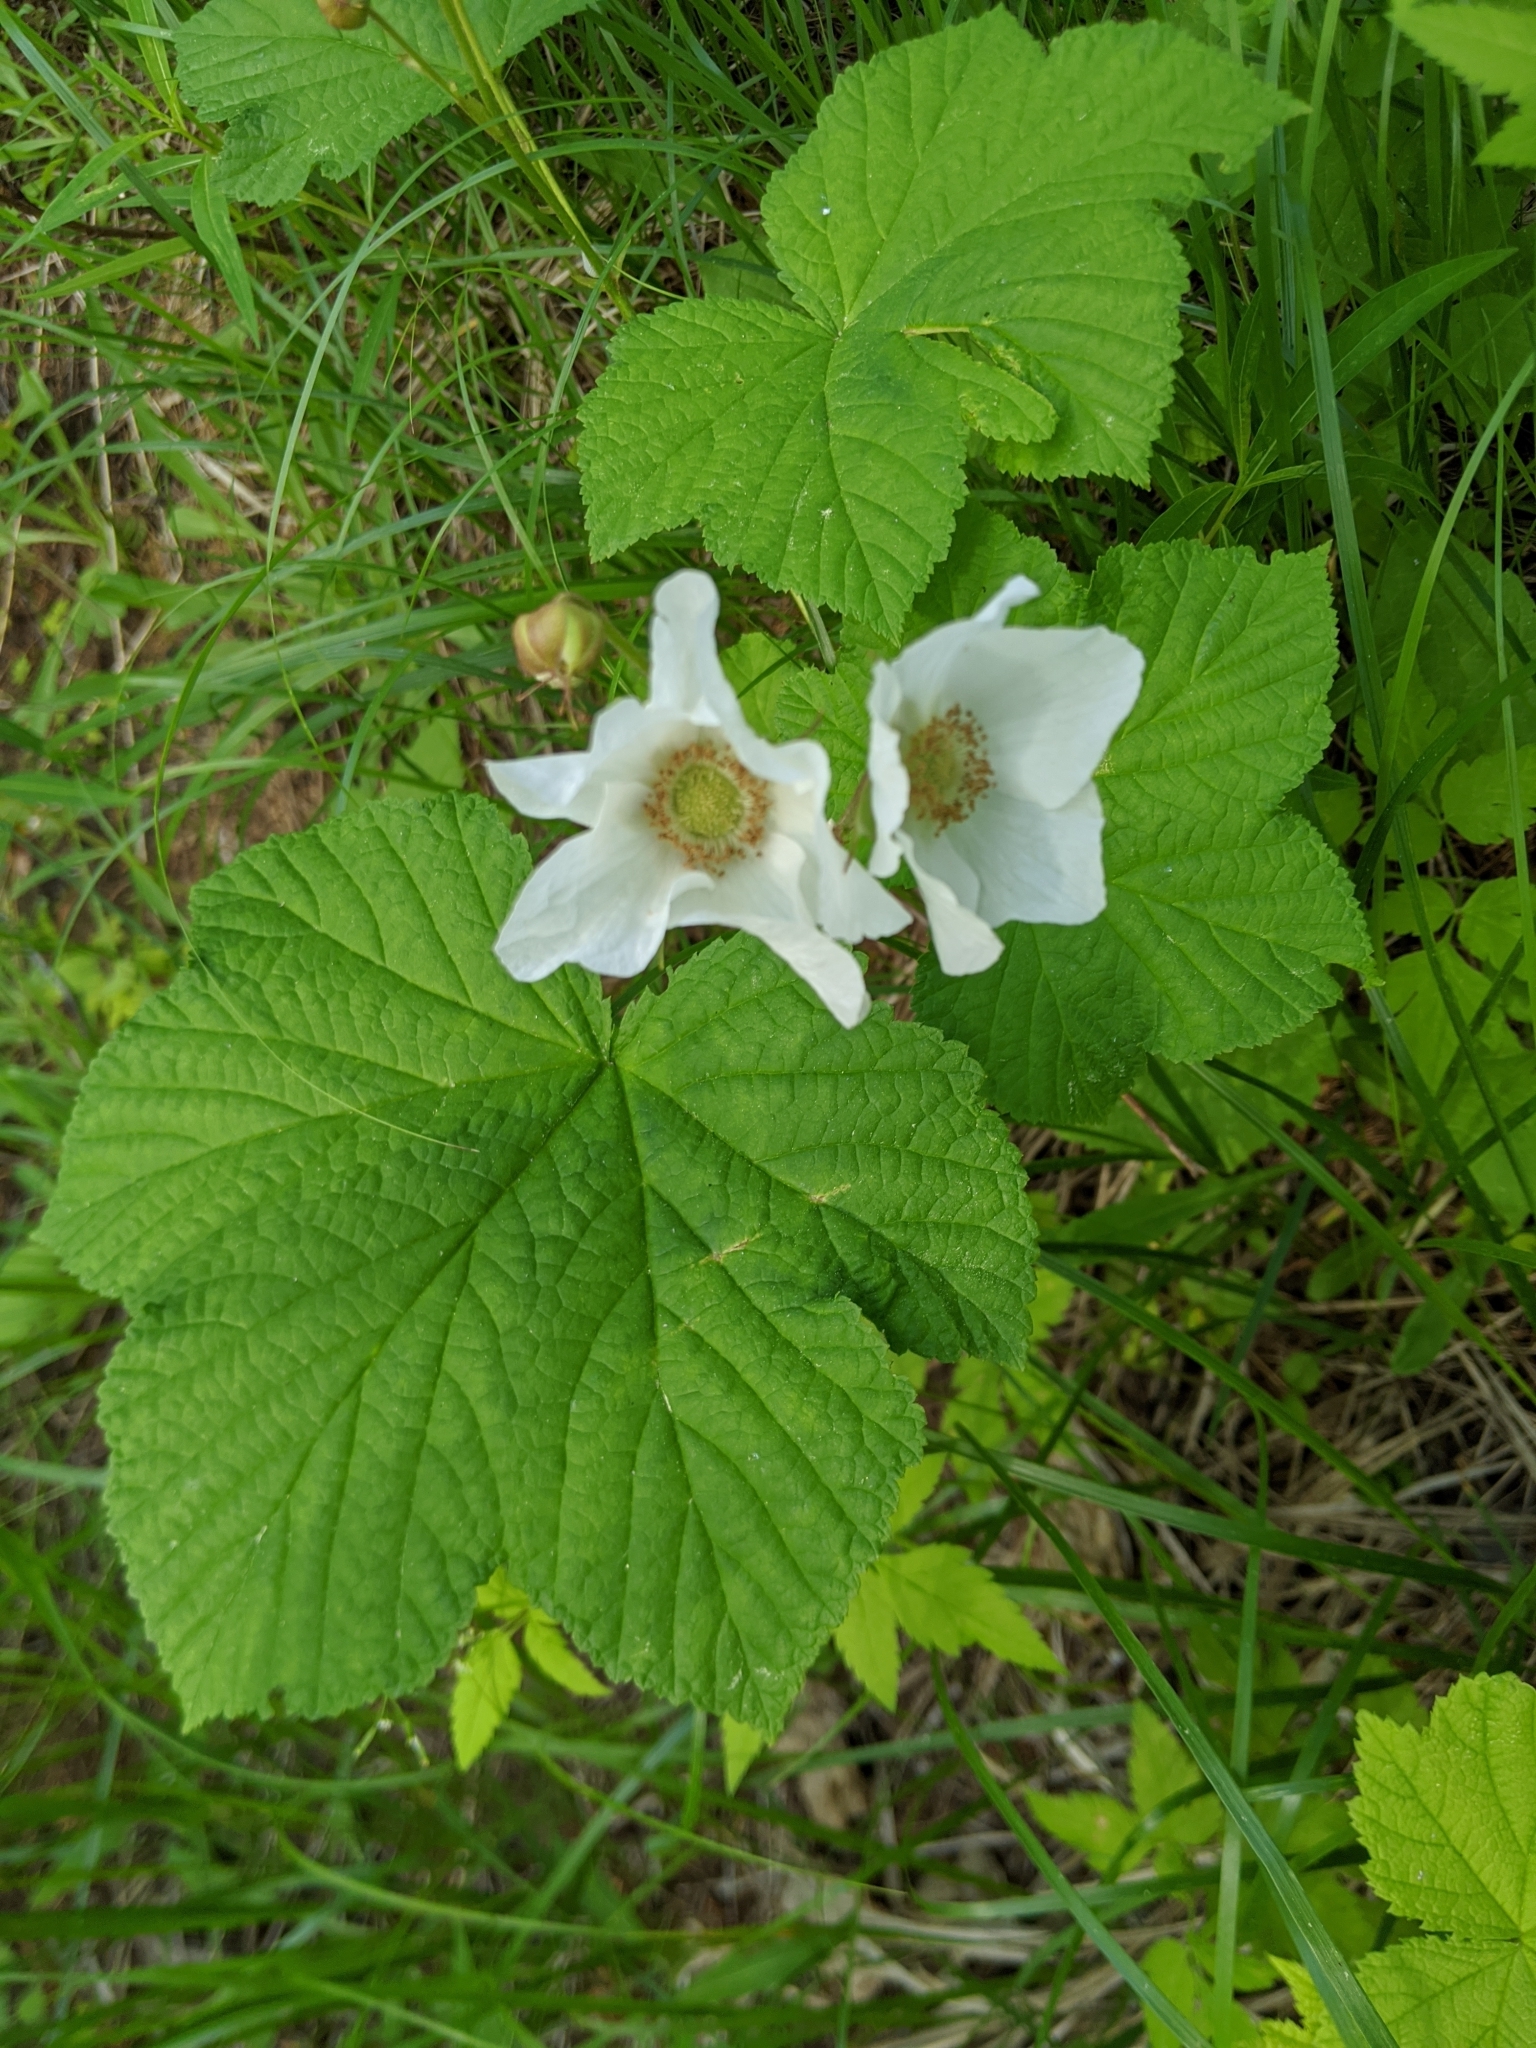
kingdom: Plantae
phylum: Tracheophyta
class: Magnoliopsida
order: Rosales
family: Rosaceae
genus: Rubus
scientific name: Rubus parviflorus
